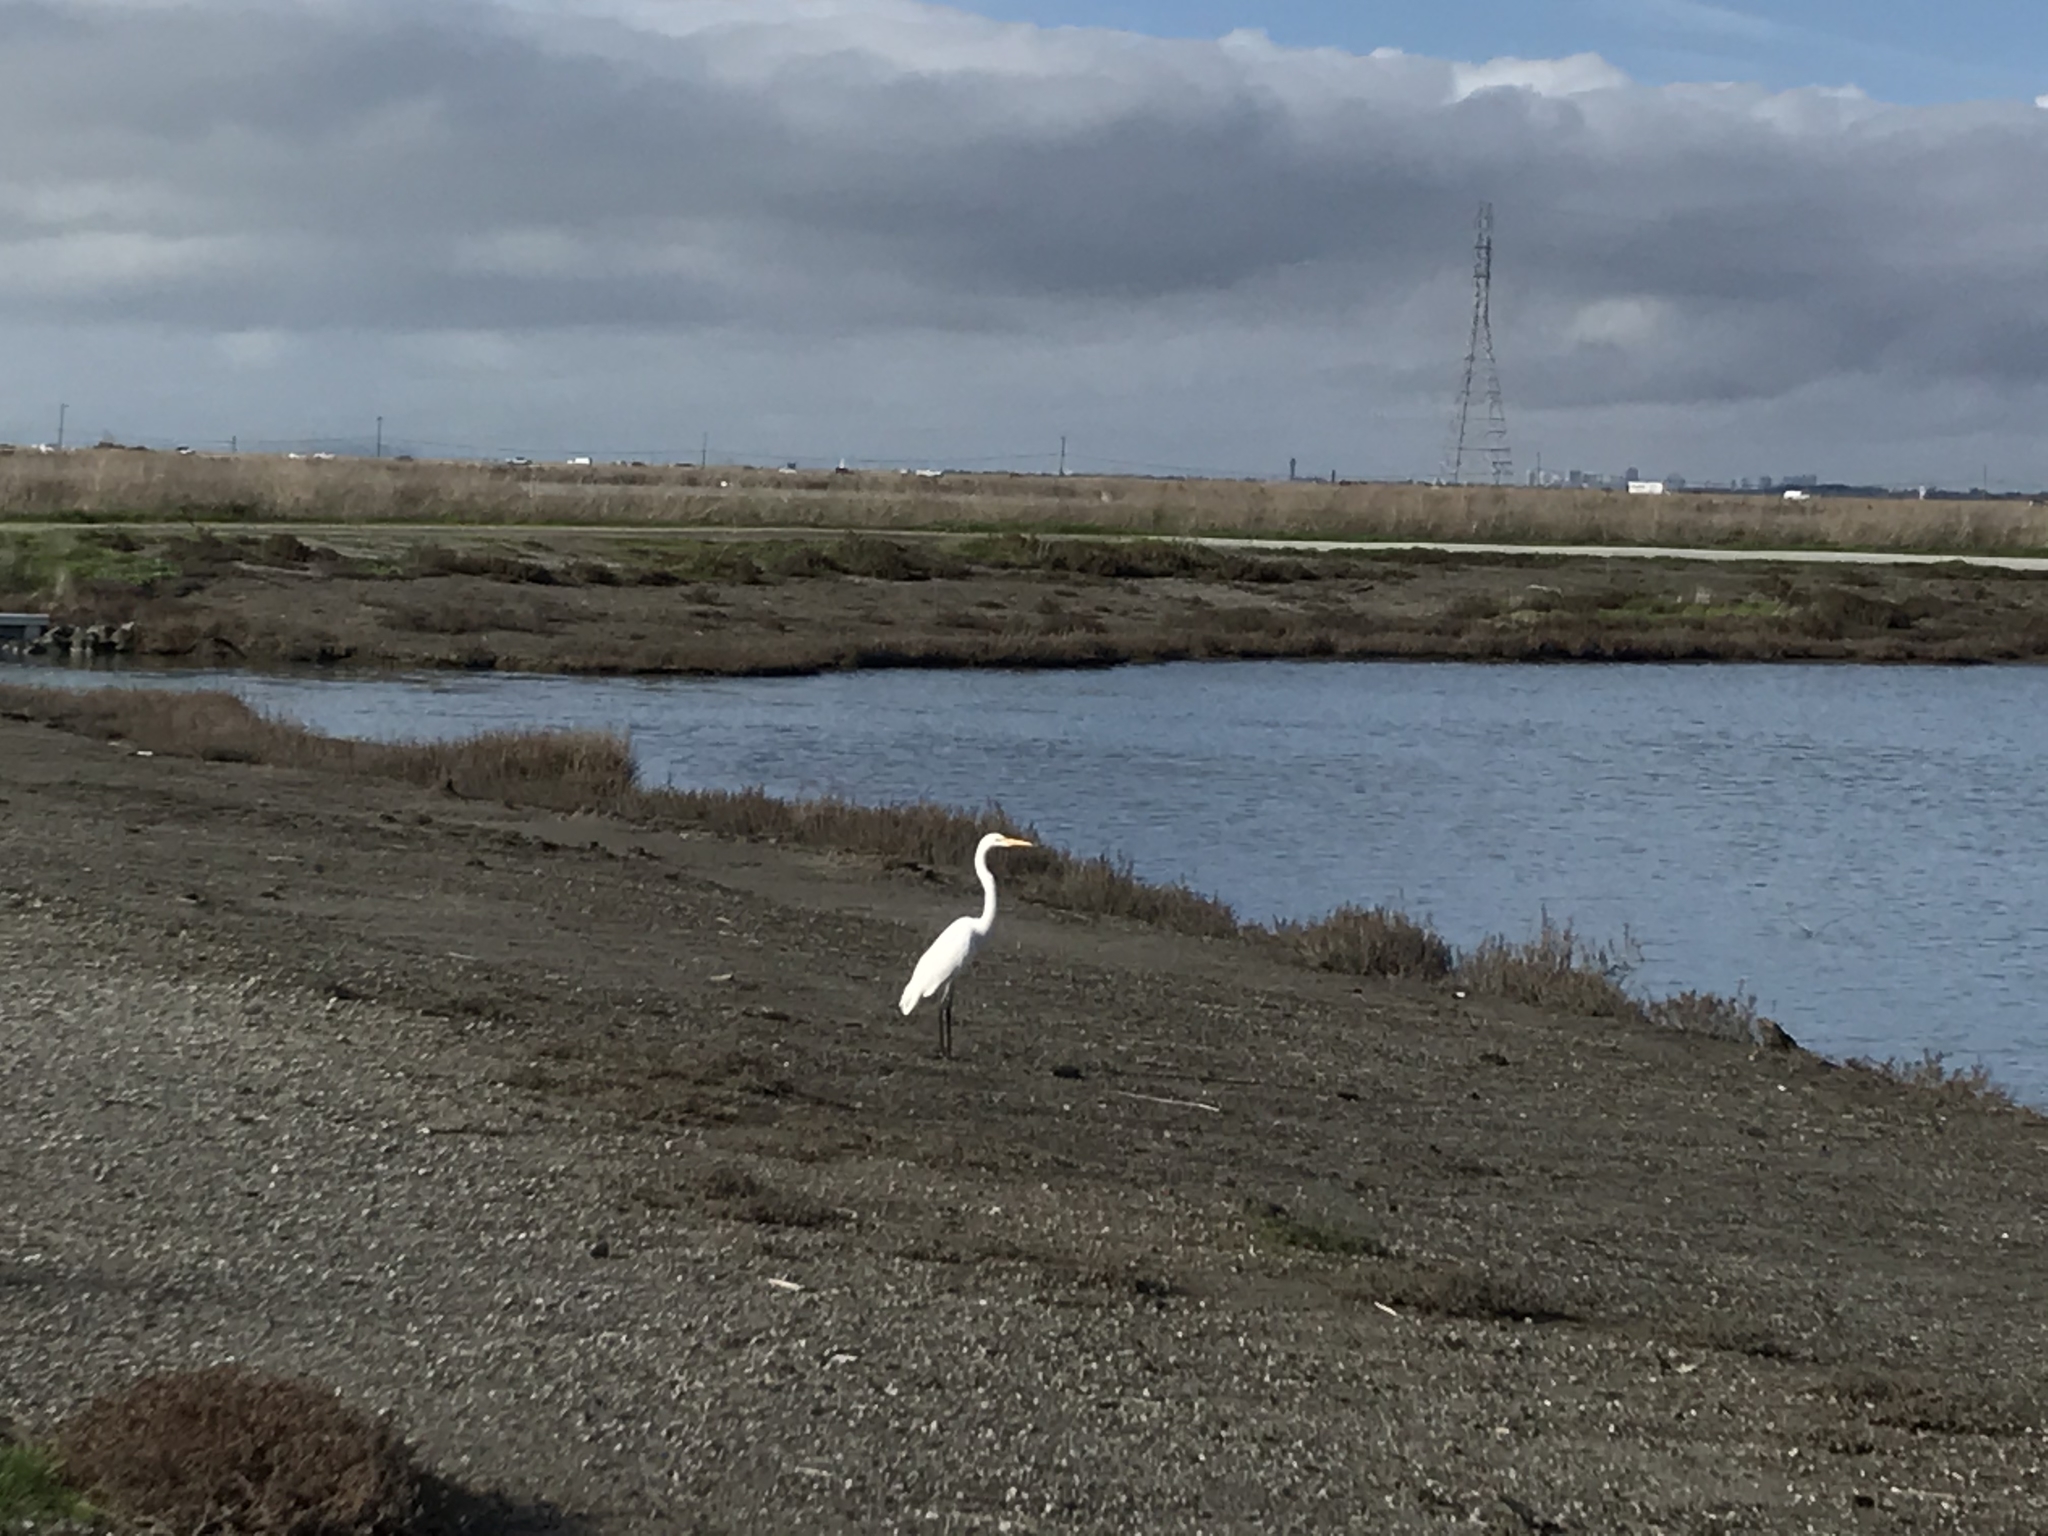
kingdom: Animalia
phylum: Chordata
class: Aves
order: Pelecaniformes
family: Ardeidae
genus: Ardea
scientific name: Ardea alba
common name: Great egret
